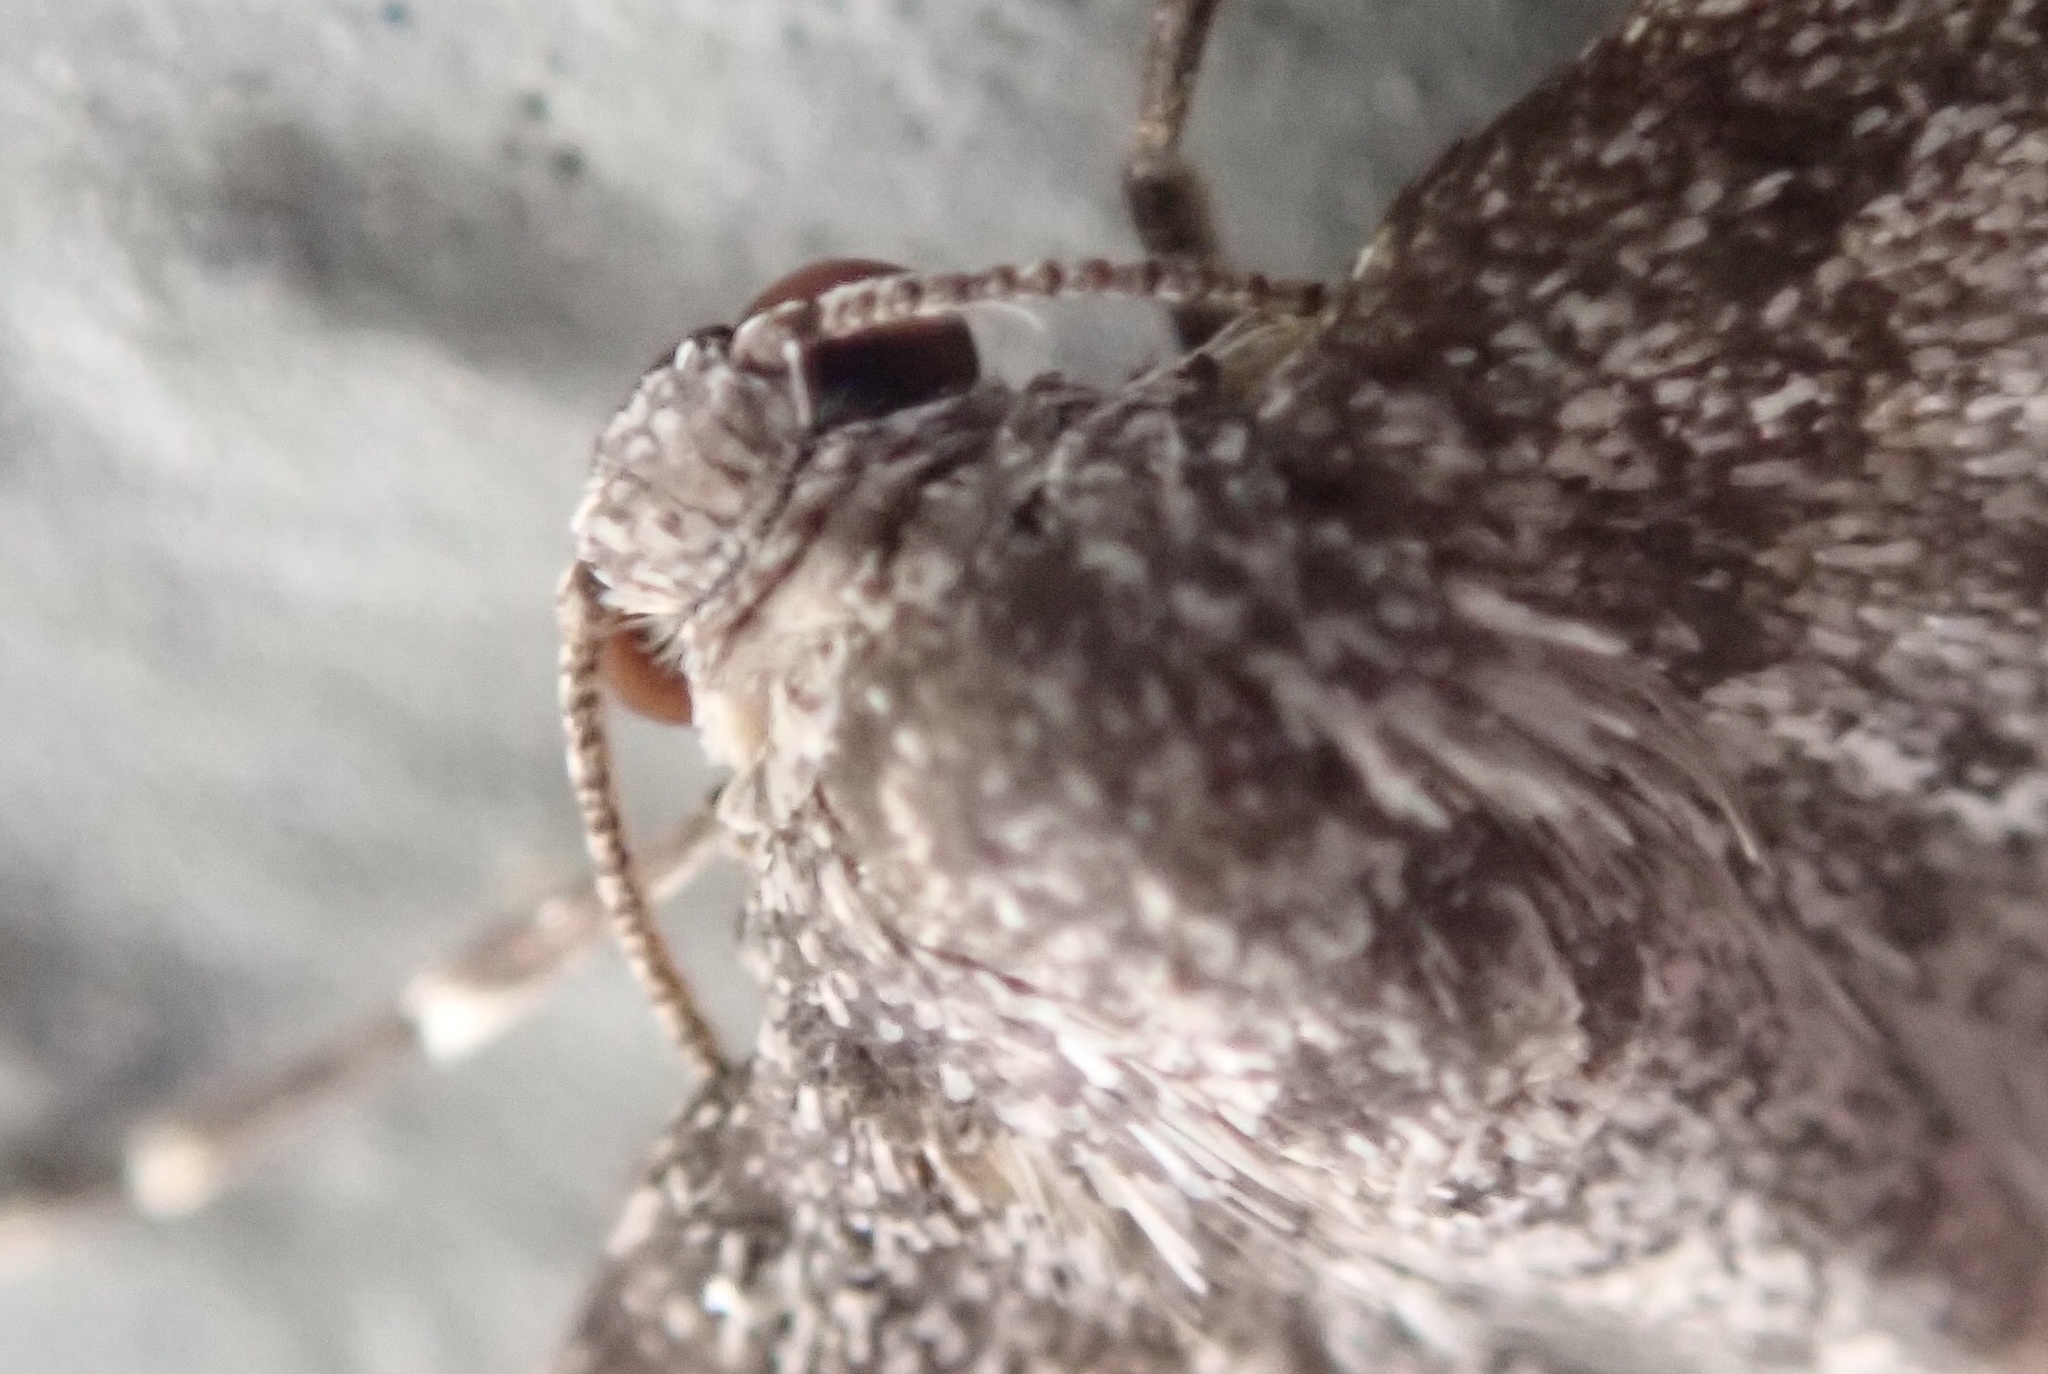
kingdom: Animalia
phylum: Arthropoda
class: Insecta
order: Lepidoptera
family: Geometridae
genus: Venusia
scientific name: Venusia pearsalli
